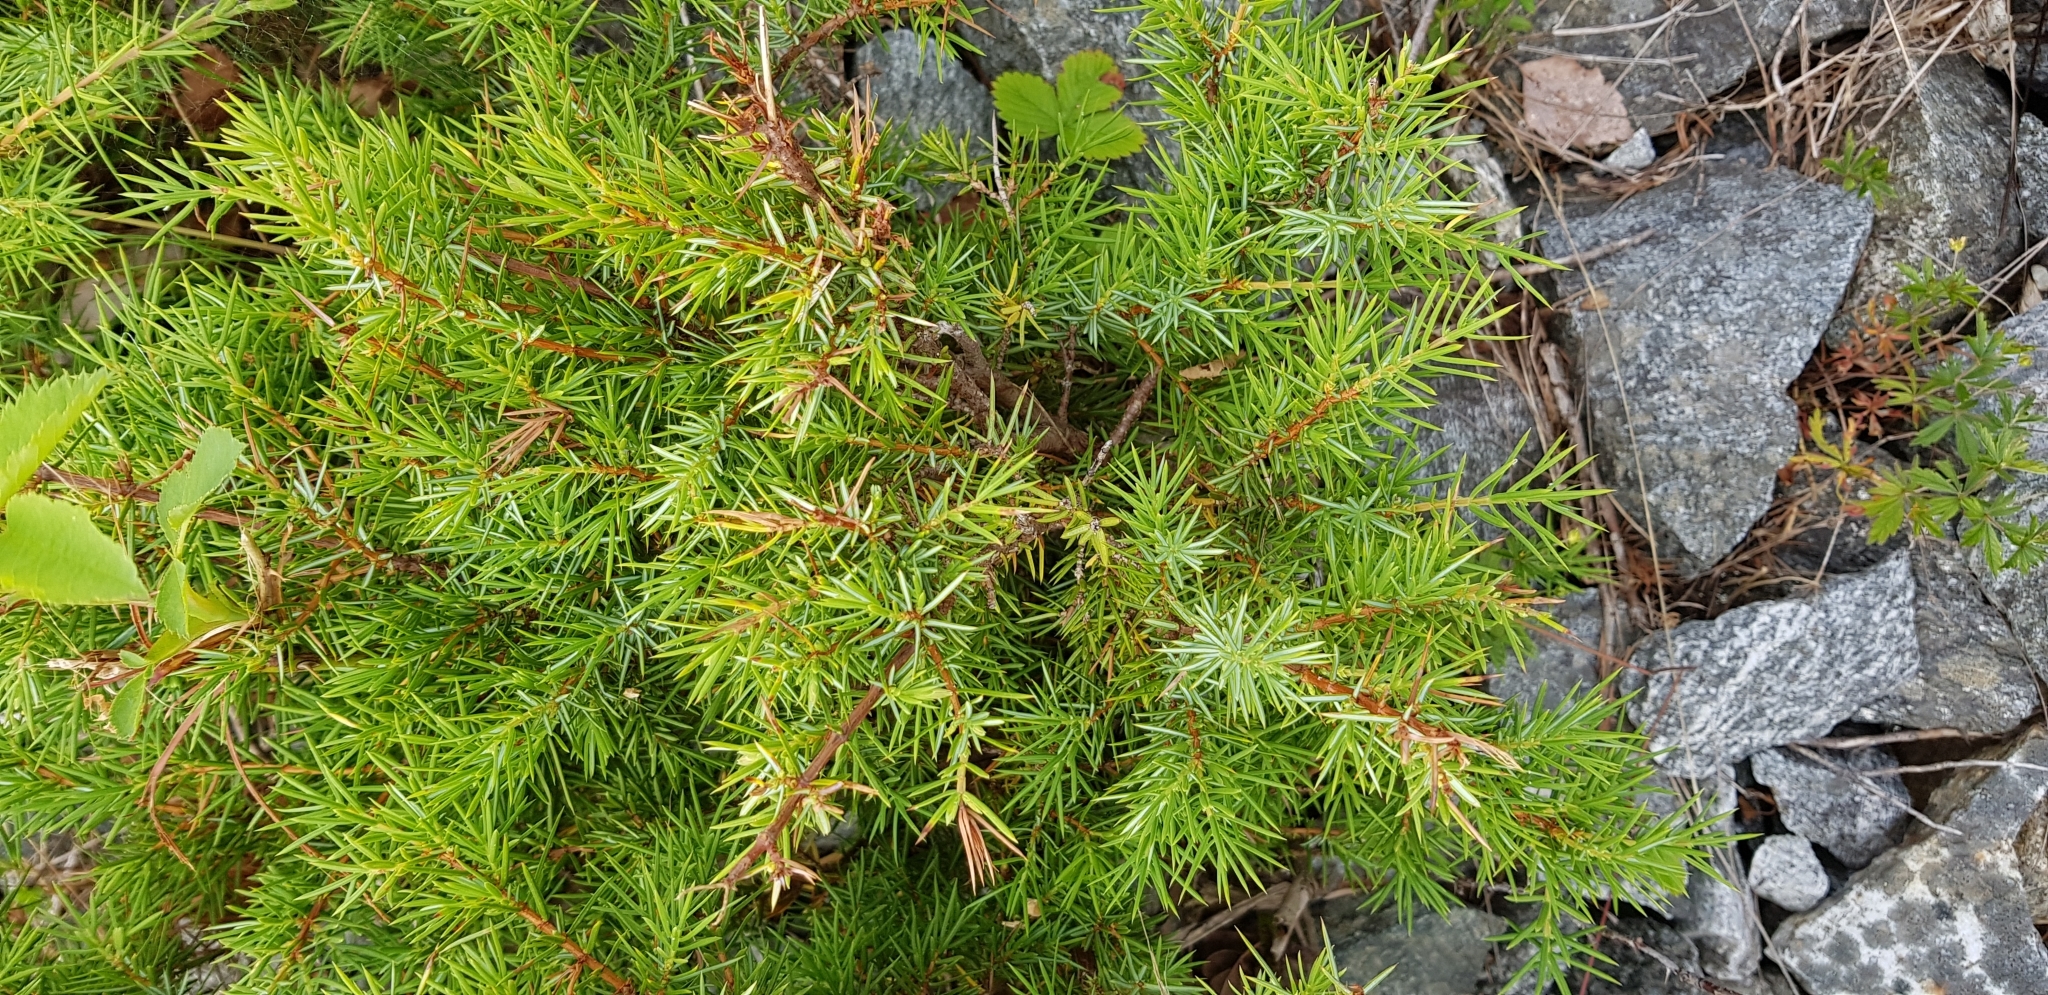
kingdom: Plantae
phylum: Tracheophyta
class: Pinopsida
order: Pinales
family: Cupressaceae
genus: Juniperus
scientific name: Juniperus communis
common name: Common juniper
